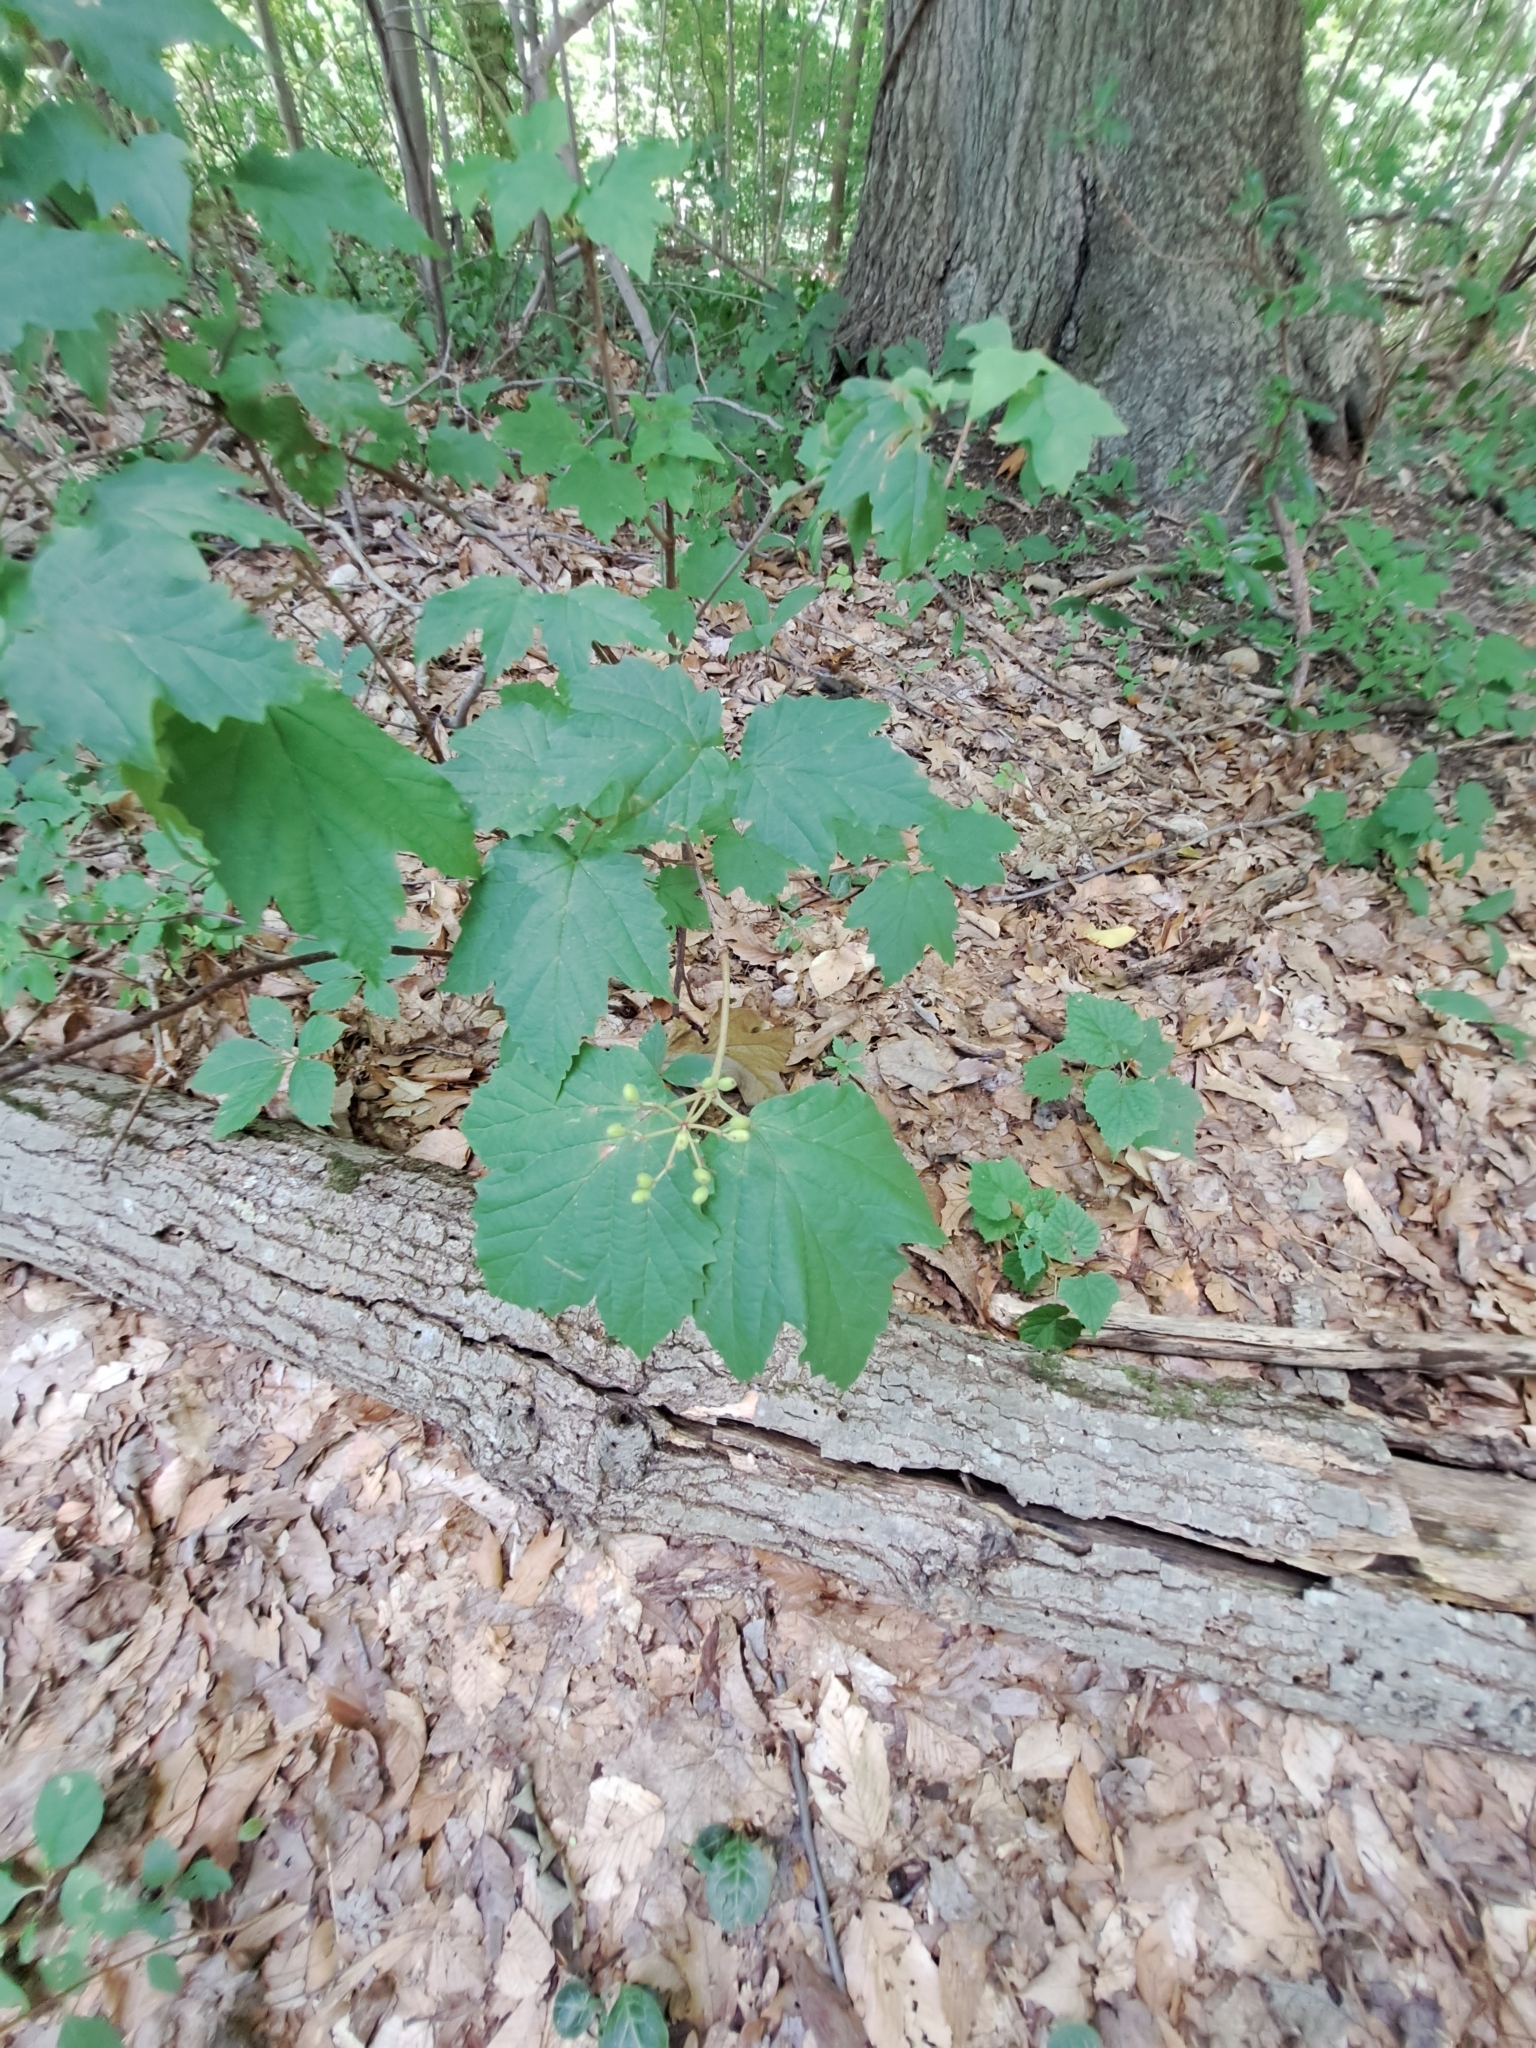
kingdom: Plantae
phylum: Tracheophyta
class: Magnoliopsida
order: Dipsacales
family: Viburnaceae
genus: Viburnum
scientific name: Viburnum acerifolium
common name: Dockmackie
